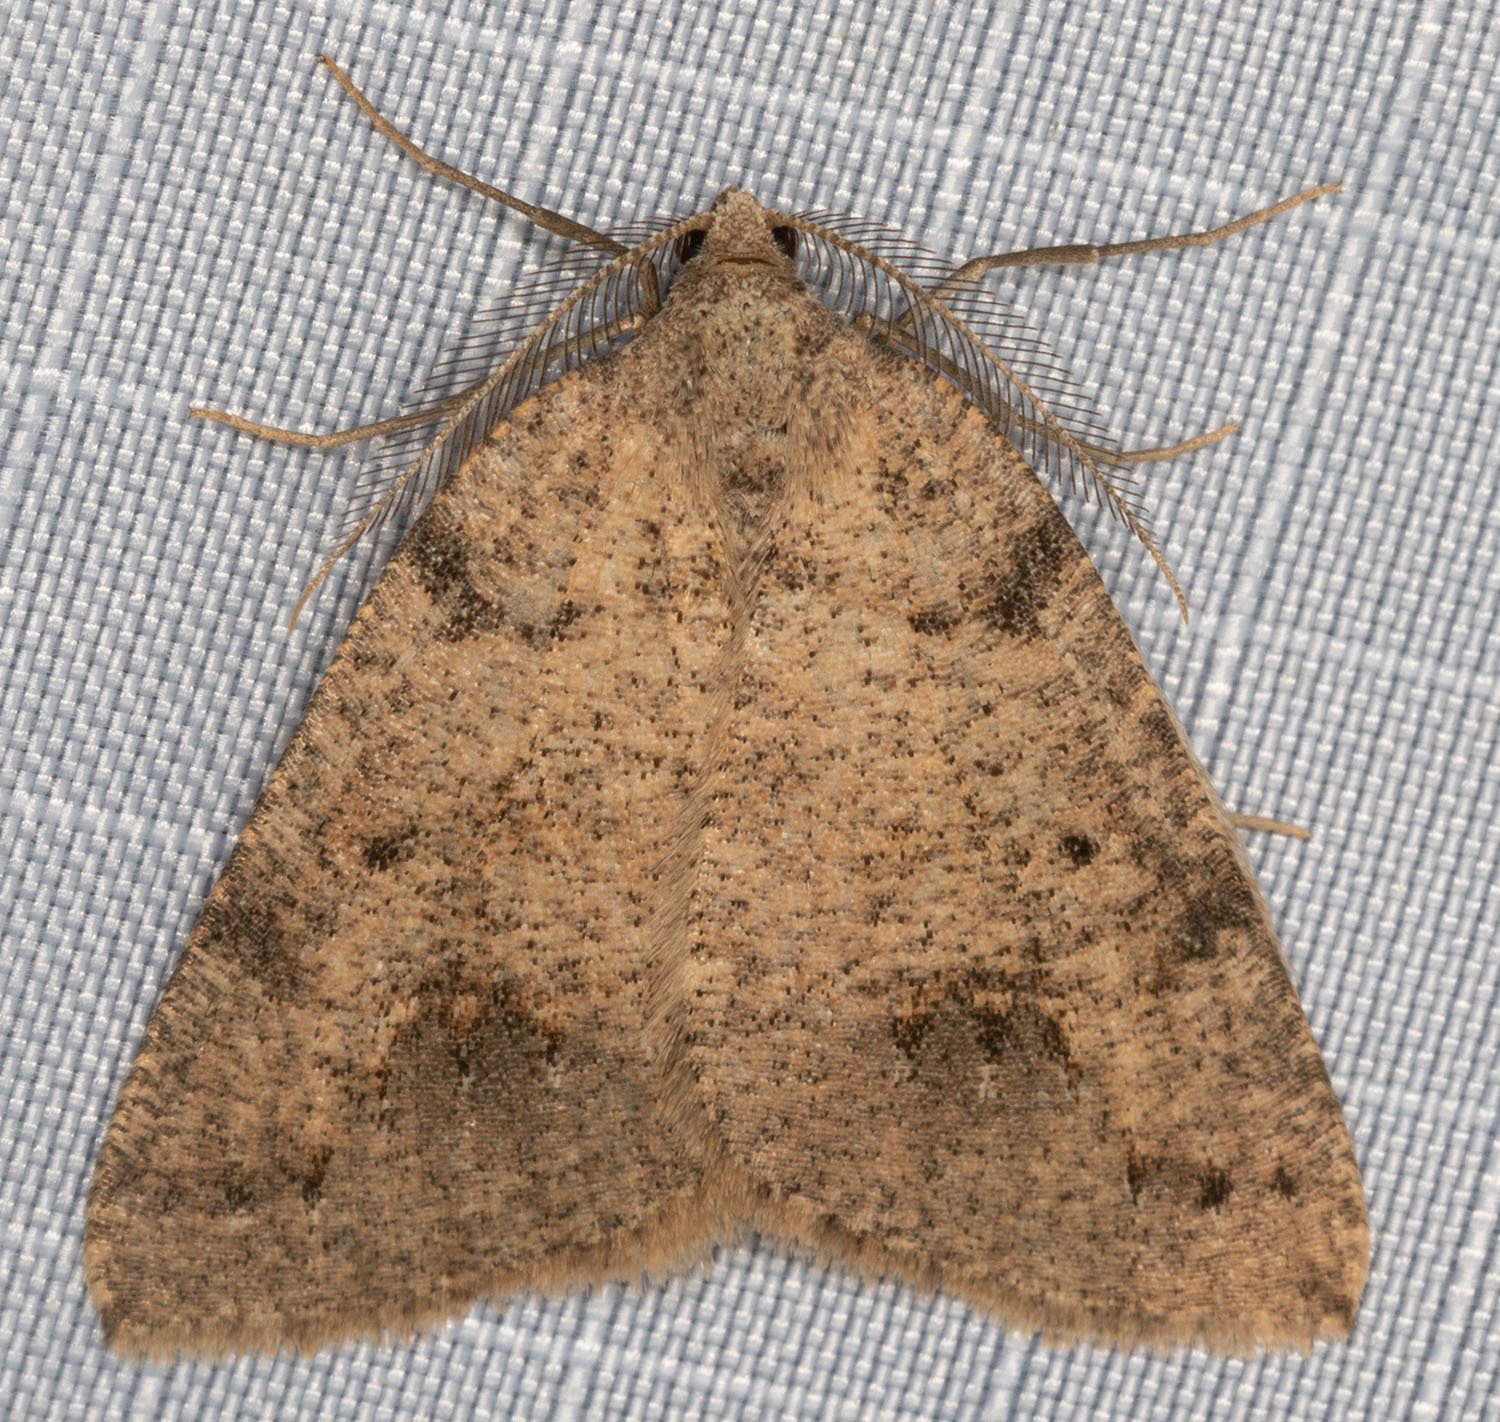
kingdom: Animalia
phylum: Arthropoda
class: Insecta
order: Lepidoptera
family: Geometridae
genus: Drepanulatrix
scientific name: Drepanulatrix quadraria
